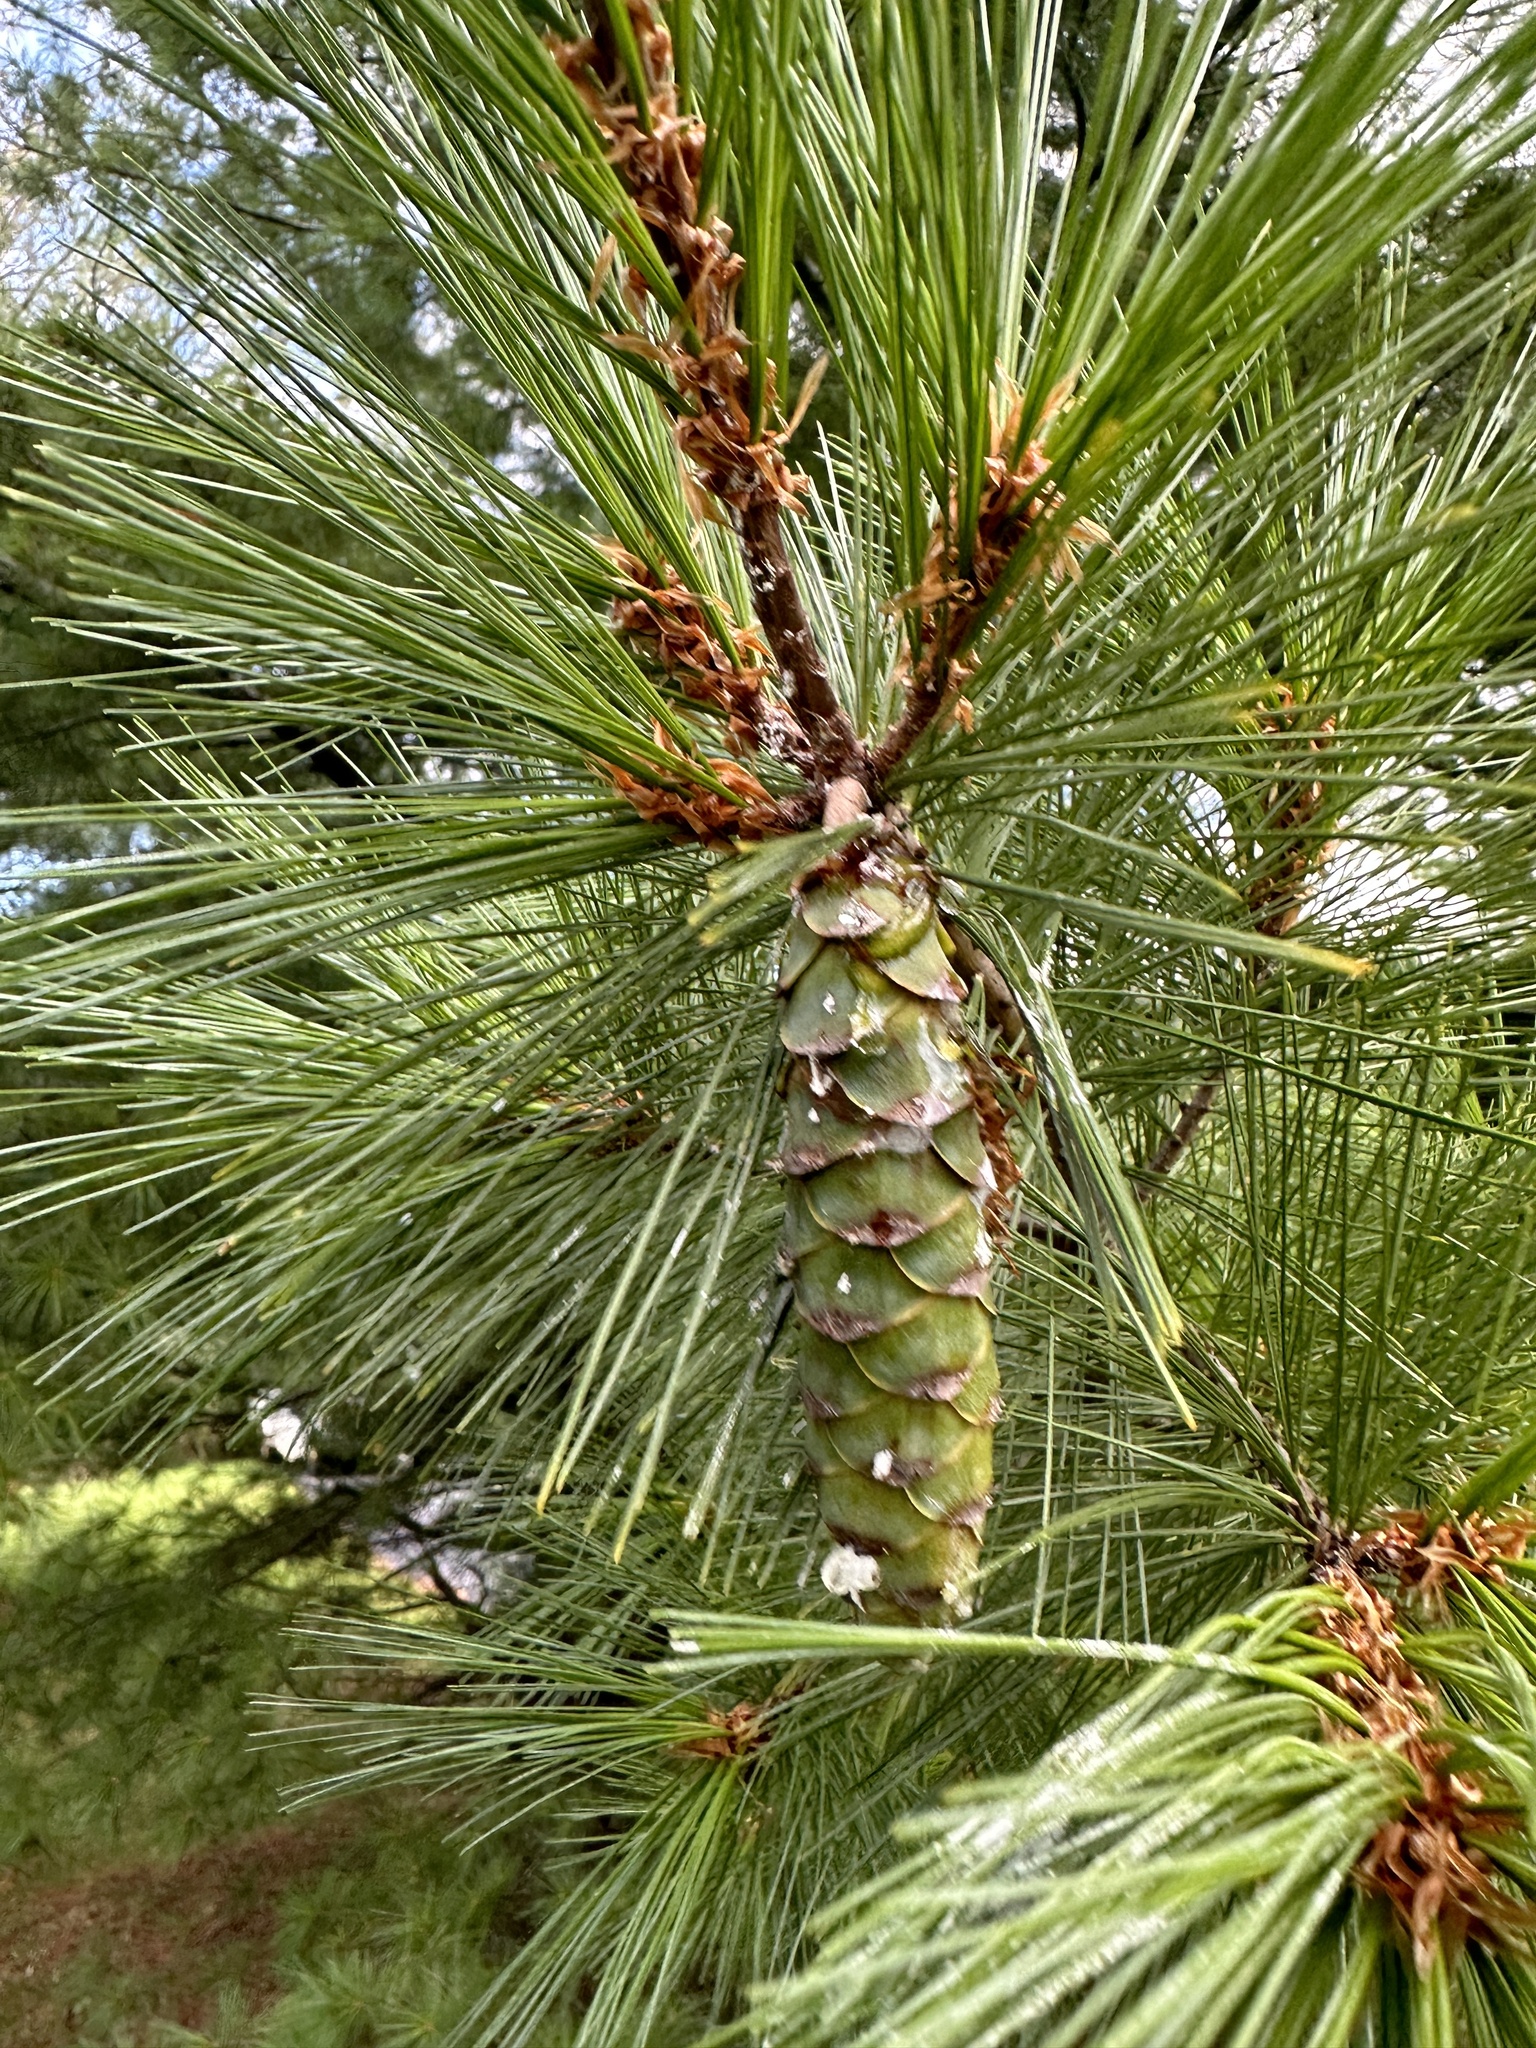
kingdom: Plantae
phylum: Tracheophyta
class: Pinopsida
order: Pinales
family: Pinaceae
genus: Pinus
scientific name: Pinus strobus
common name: Weymouth pine
